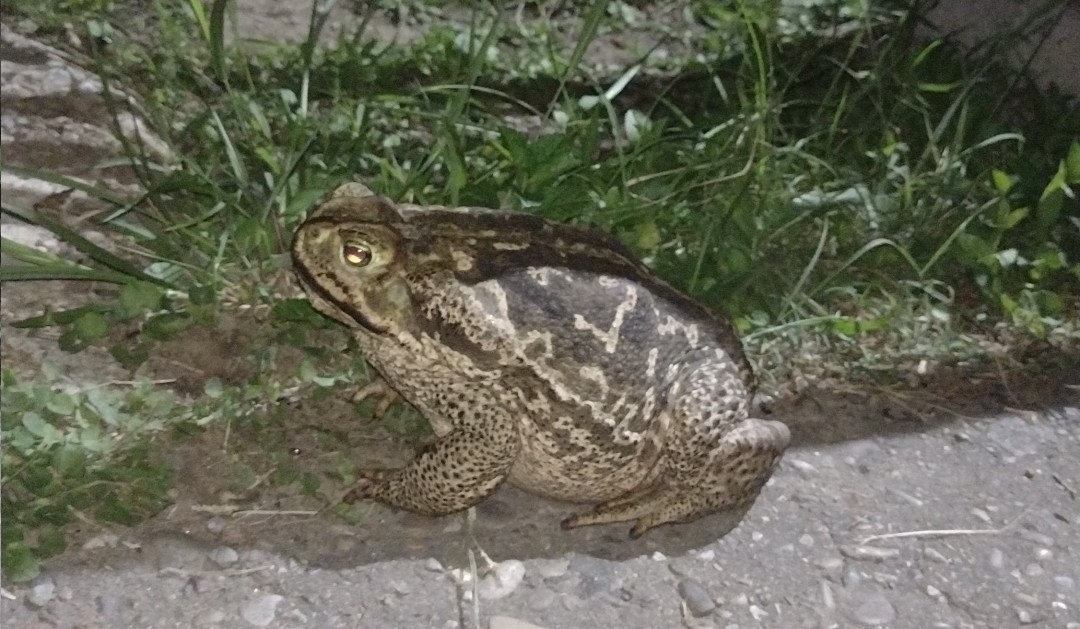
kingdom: Animalia
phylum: Chordata
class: Amphibia
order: Anura
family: Bufonidae
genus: Rhinella
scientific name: Rhinella diptycha
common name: Cope's toad
